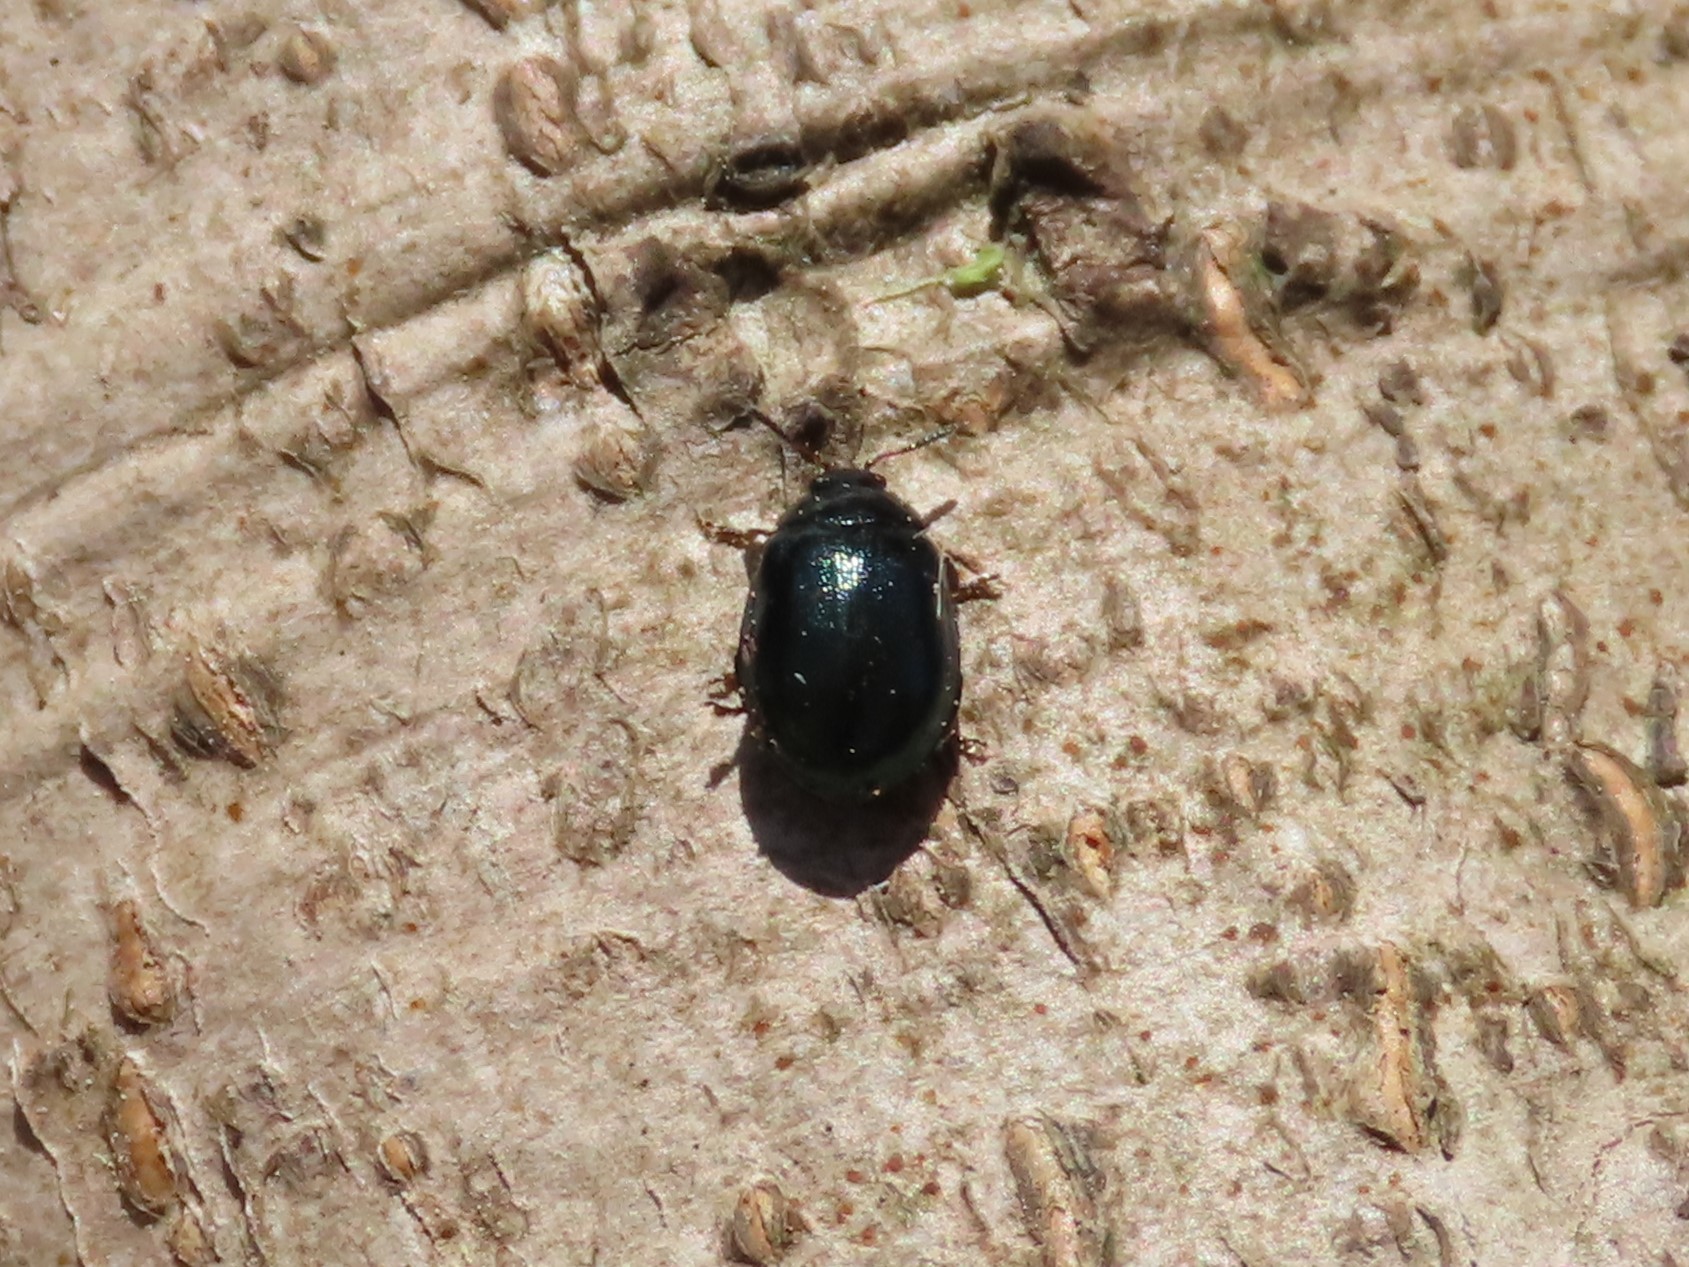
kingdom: Animalia
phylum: Arthropoda
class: Insecta
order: Coleoptera
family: Chrysomelidae
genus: Plagiodera
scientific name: Plagiodera versicolora
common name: Imported willow leaf beetle
